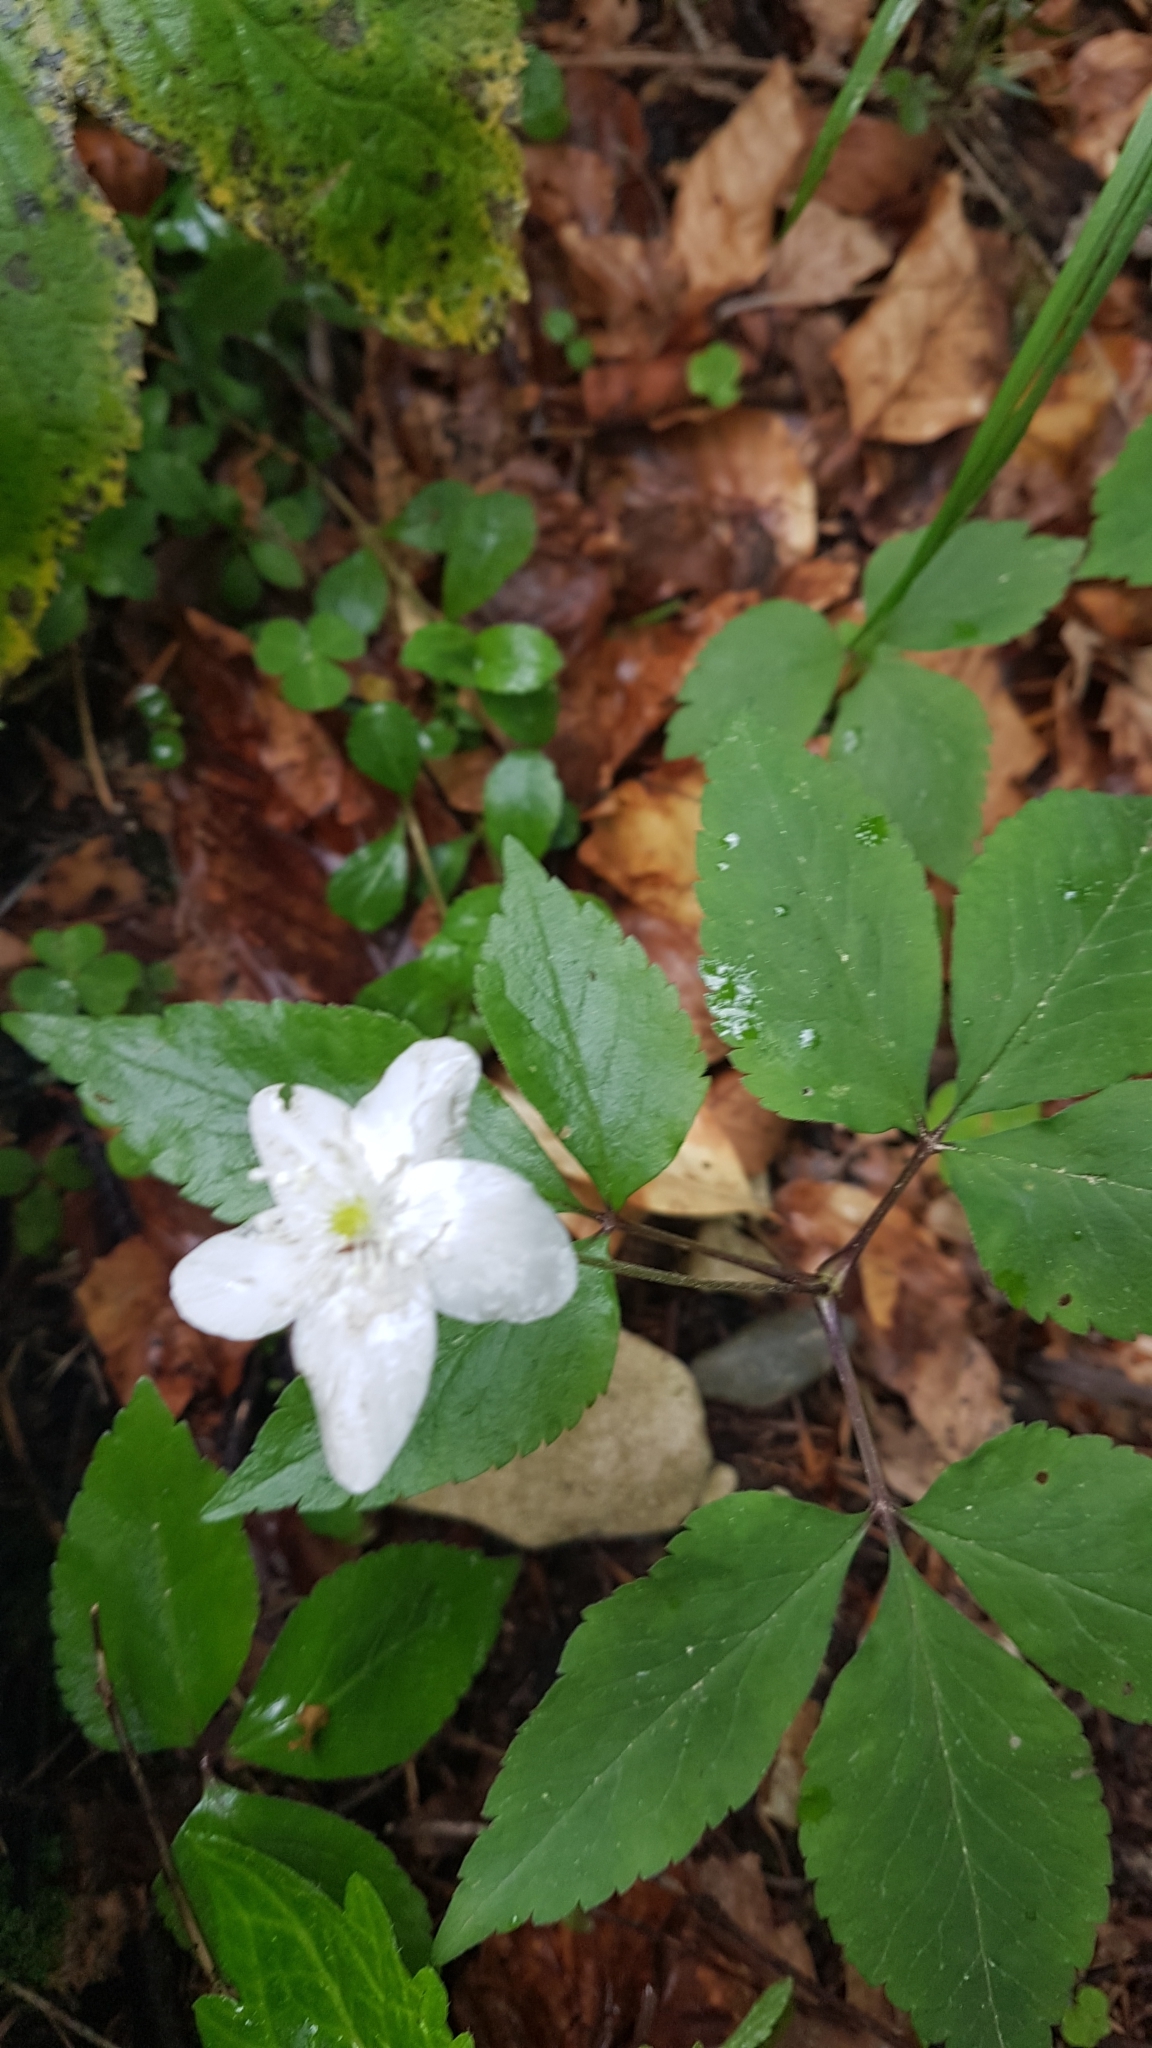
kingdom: Plantae
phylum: Tracheophyta
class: Magnoliopsida
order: Ranunculales
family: Ranunculaceae
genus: Anemone
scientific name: Anemone trifolia
